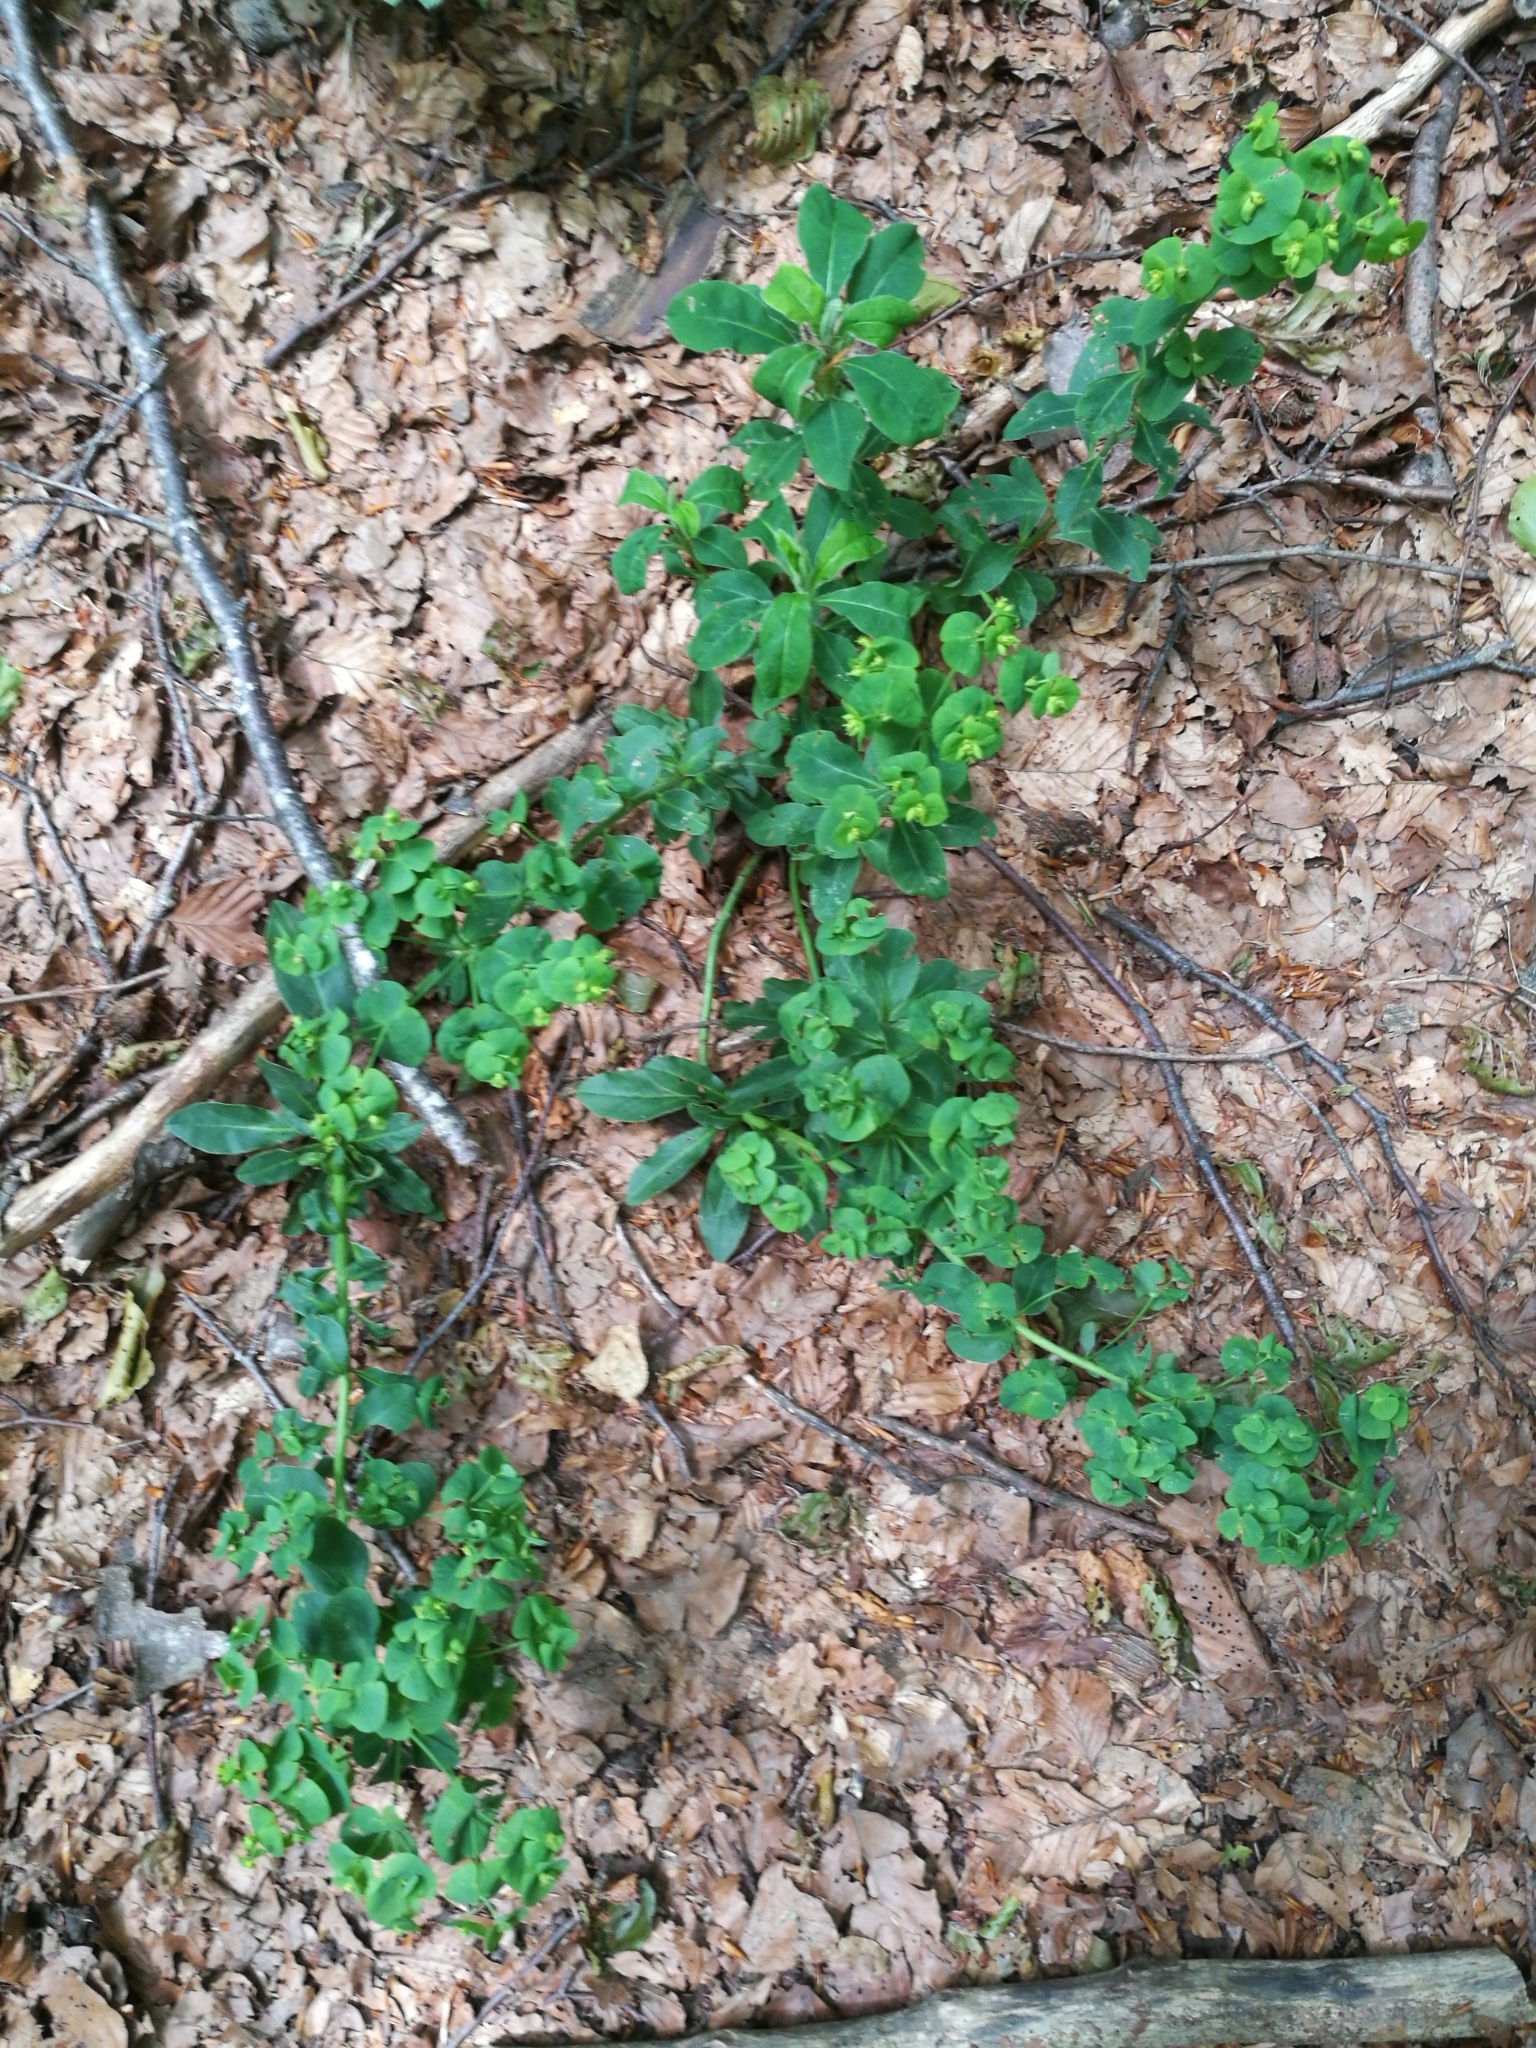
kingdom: Plantae
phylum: Tracheophyta
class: Magnoliopsida
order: Malpighiales
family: Euphorbiaceae
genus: Euphorbia
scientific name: Euphorbia amygdaloides
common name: Wood spurge
